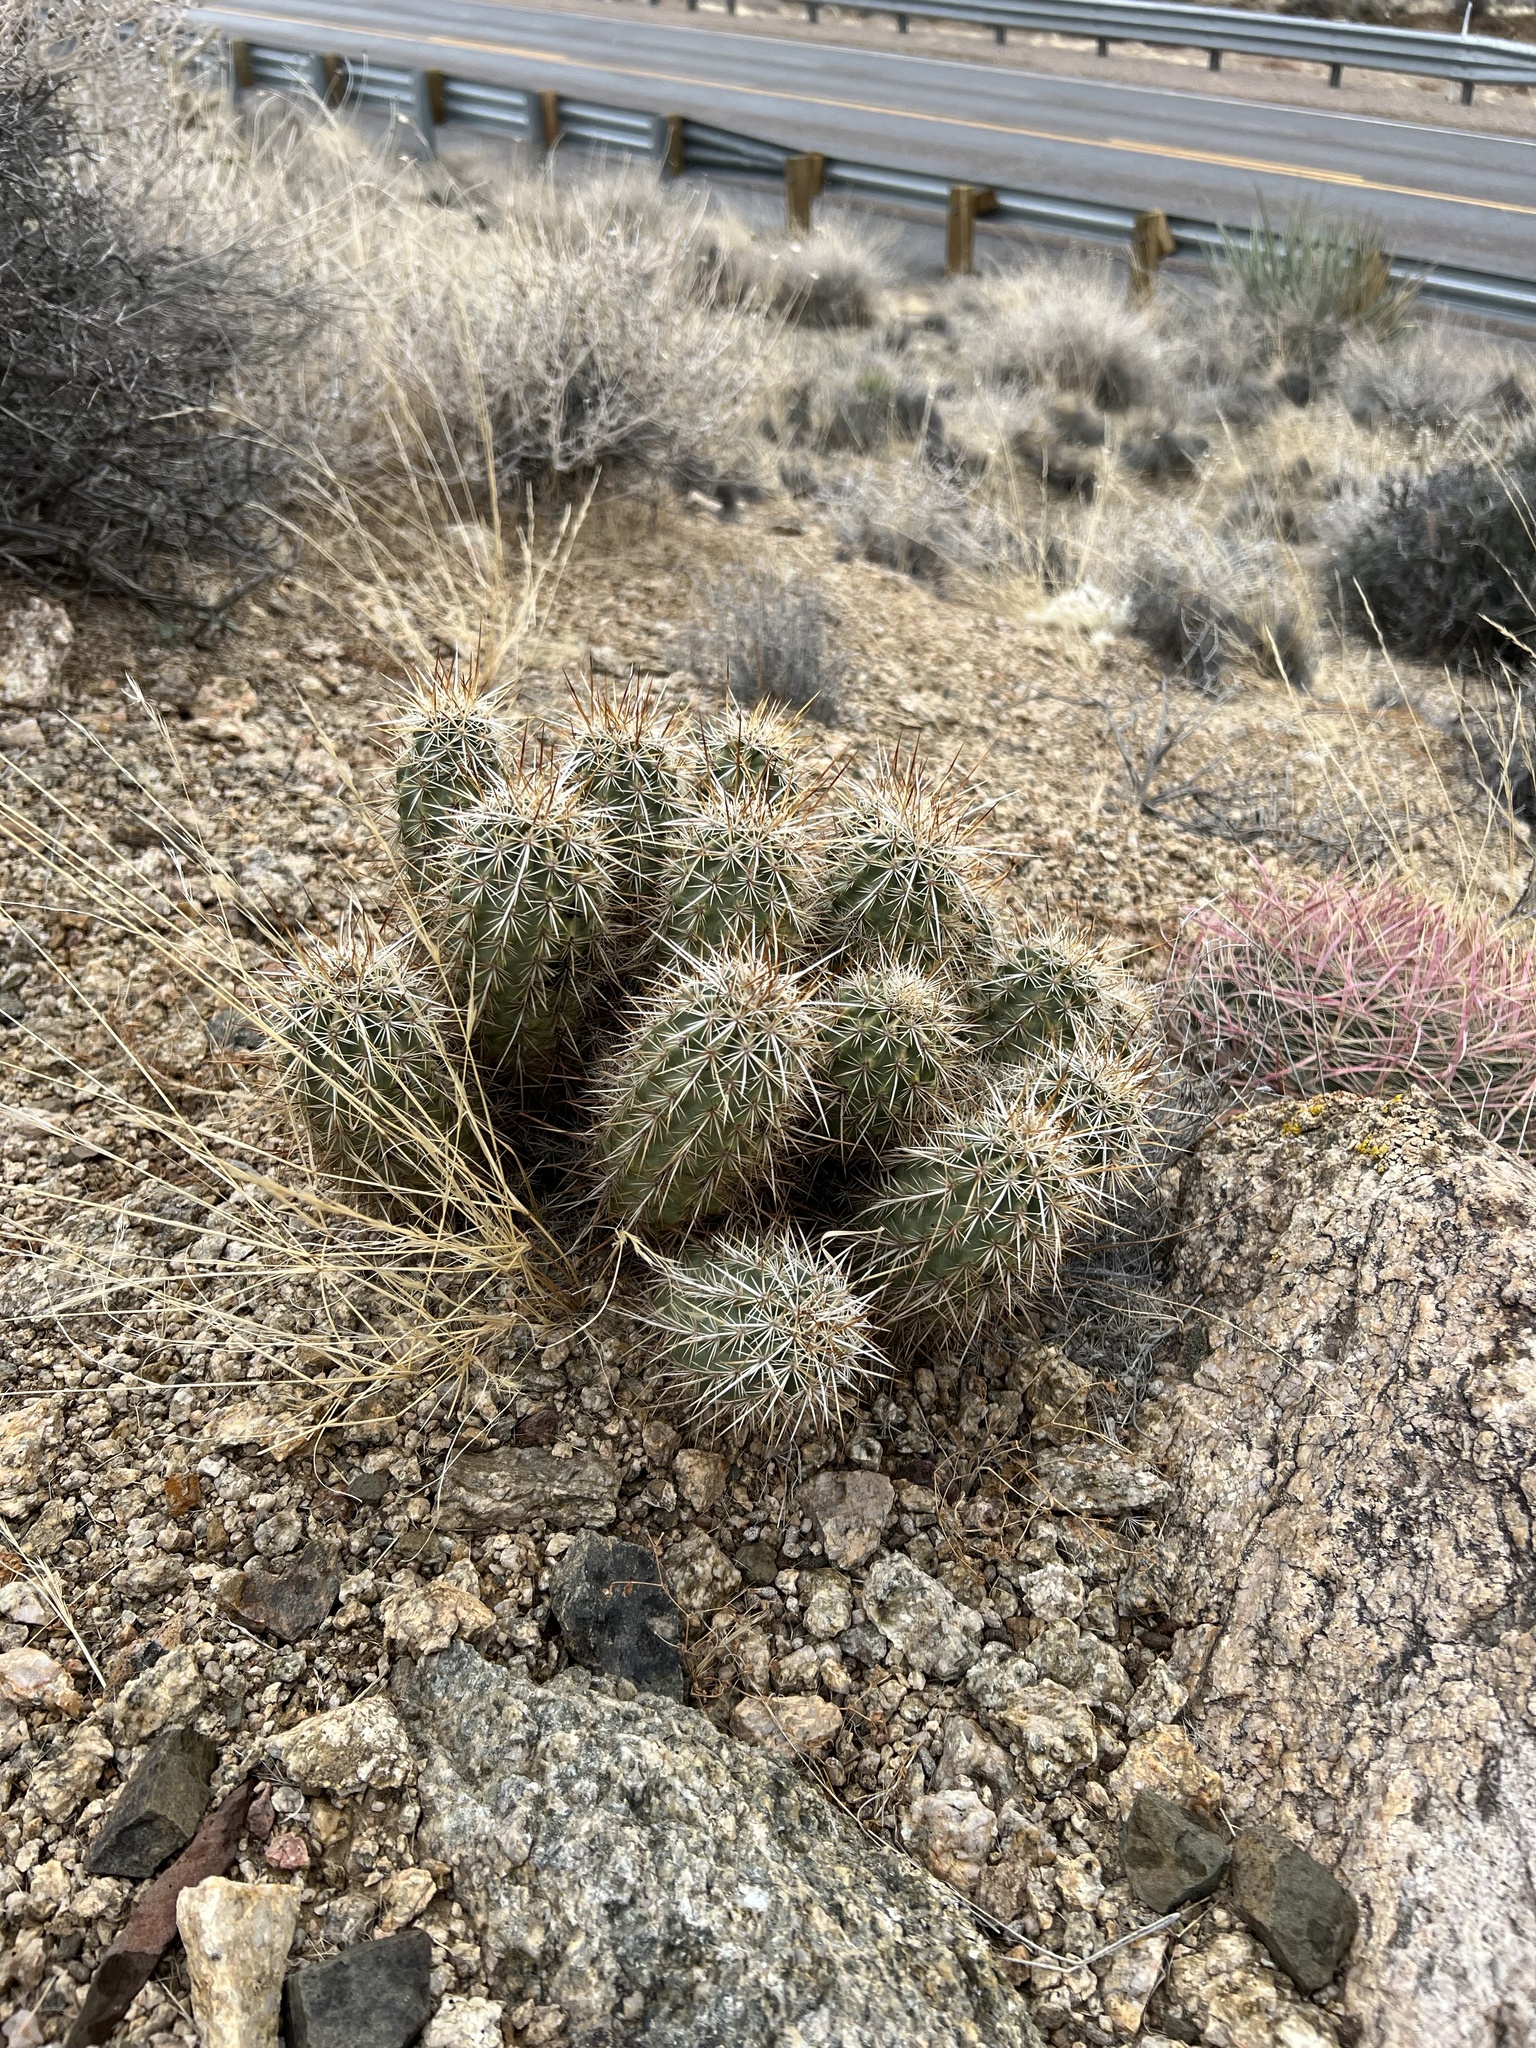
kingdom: Plantae
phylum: Tracheophyta
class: Magnoliopsida
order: Caryophyllales
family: Cactaceae
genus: Echinocereus
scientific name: Echinocereus engelmannii
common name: Engelmann's hedgehog cactus
